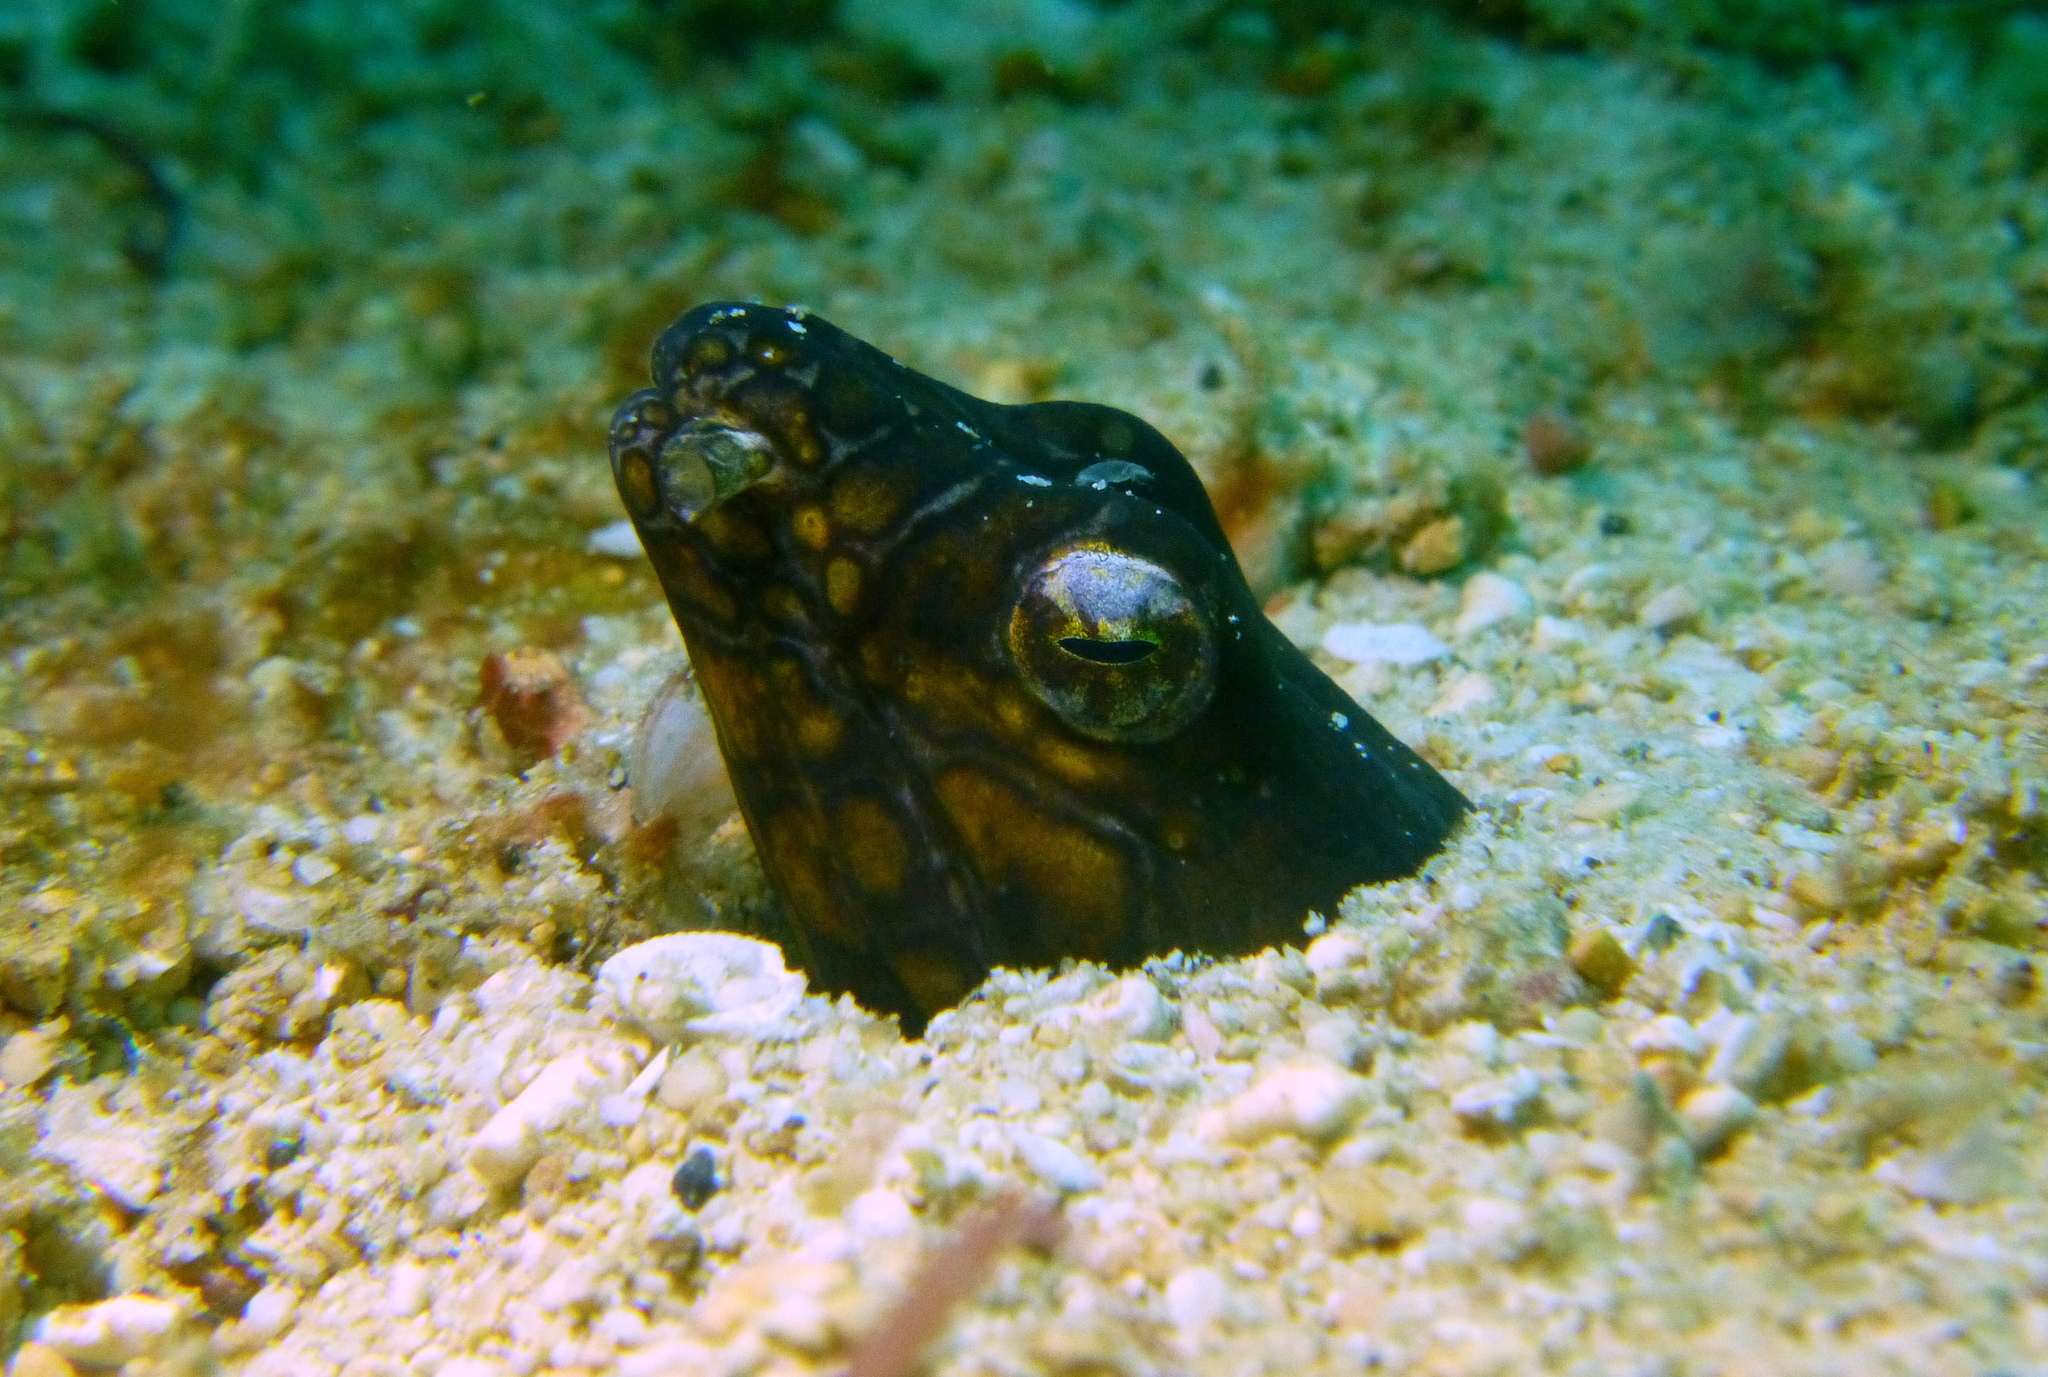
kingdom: Animalia
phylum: Chordata
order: Anguilliformes
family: Ophichthidae
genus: Ophichthus
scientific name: Ophichthus bonaparti
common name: Napoleon snake eel
